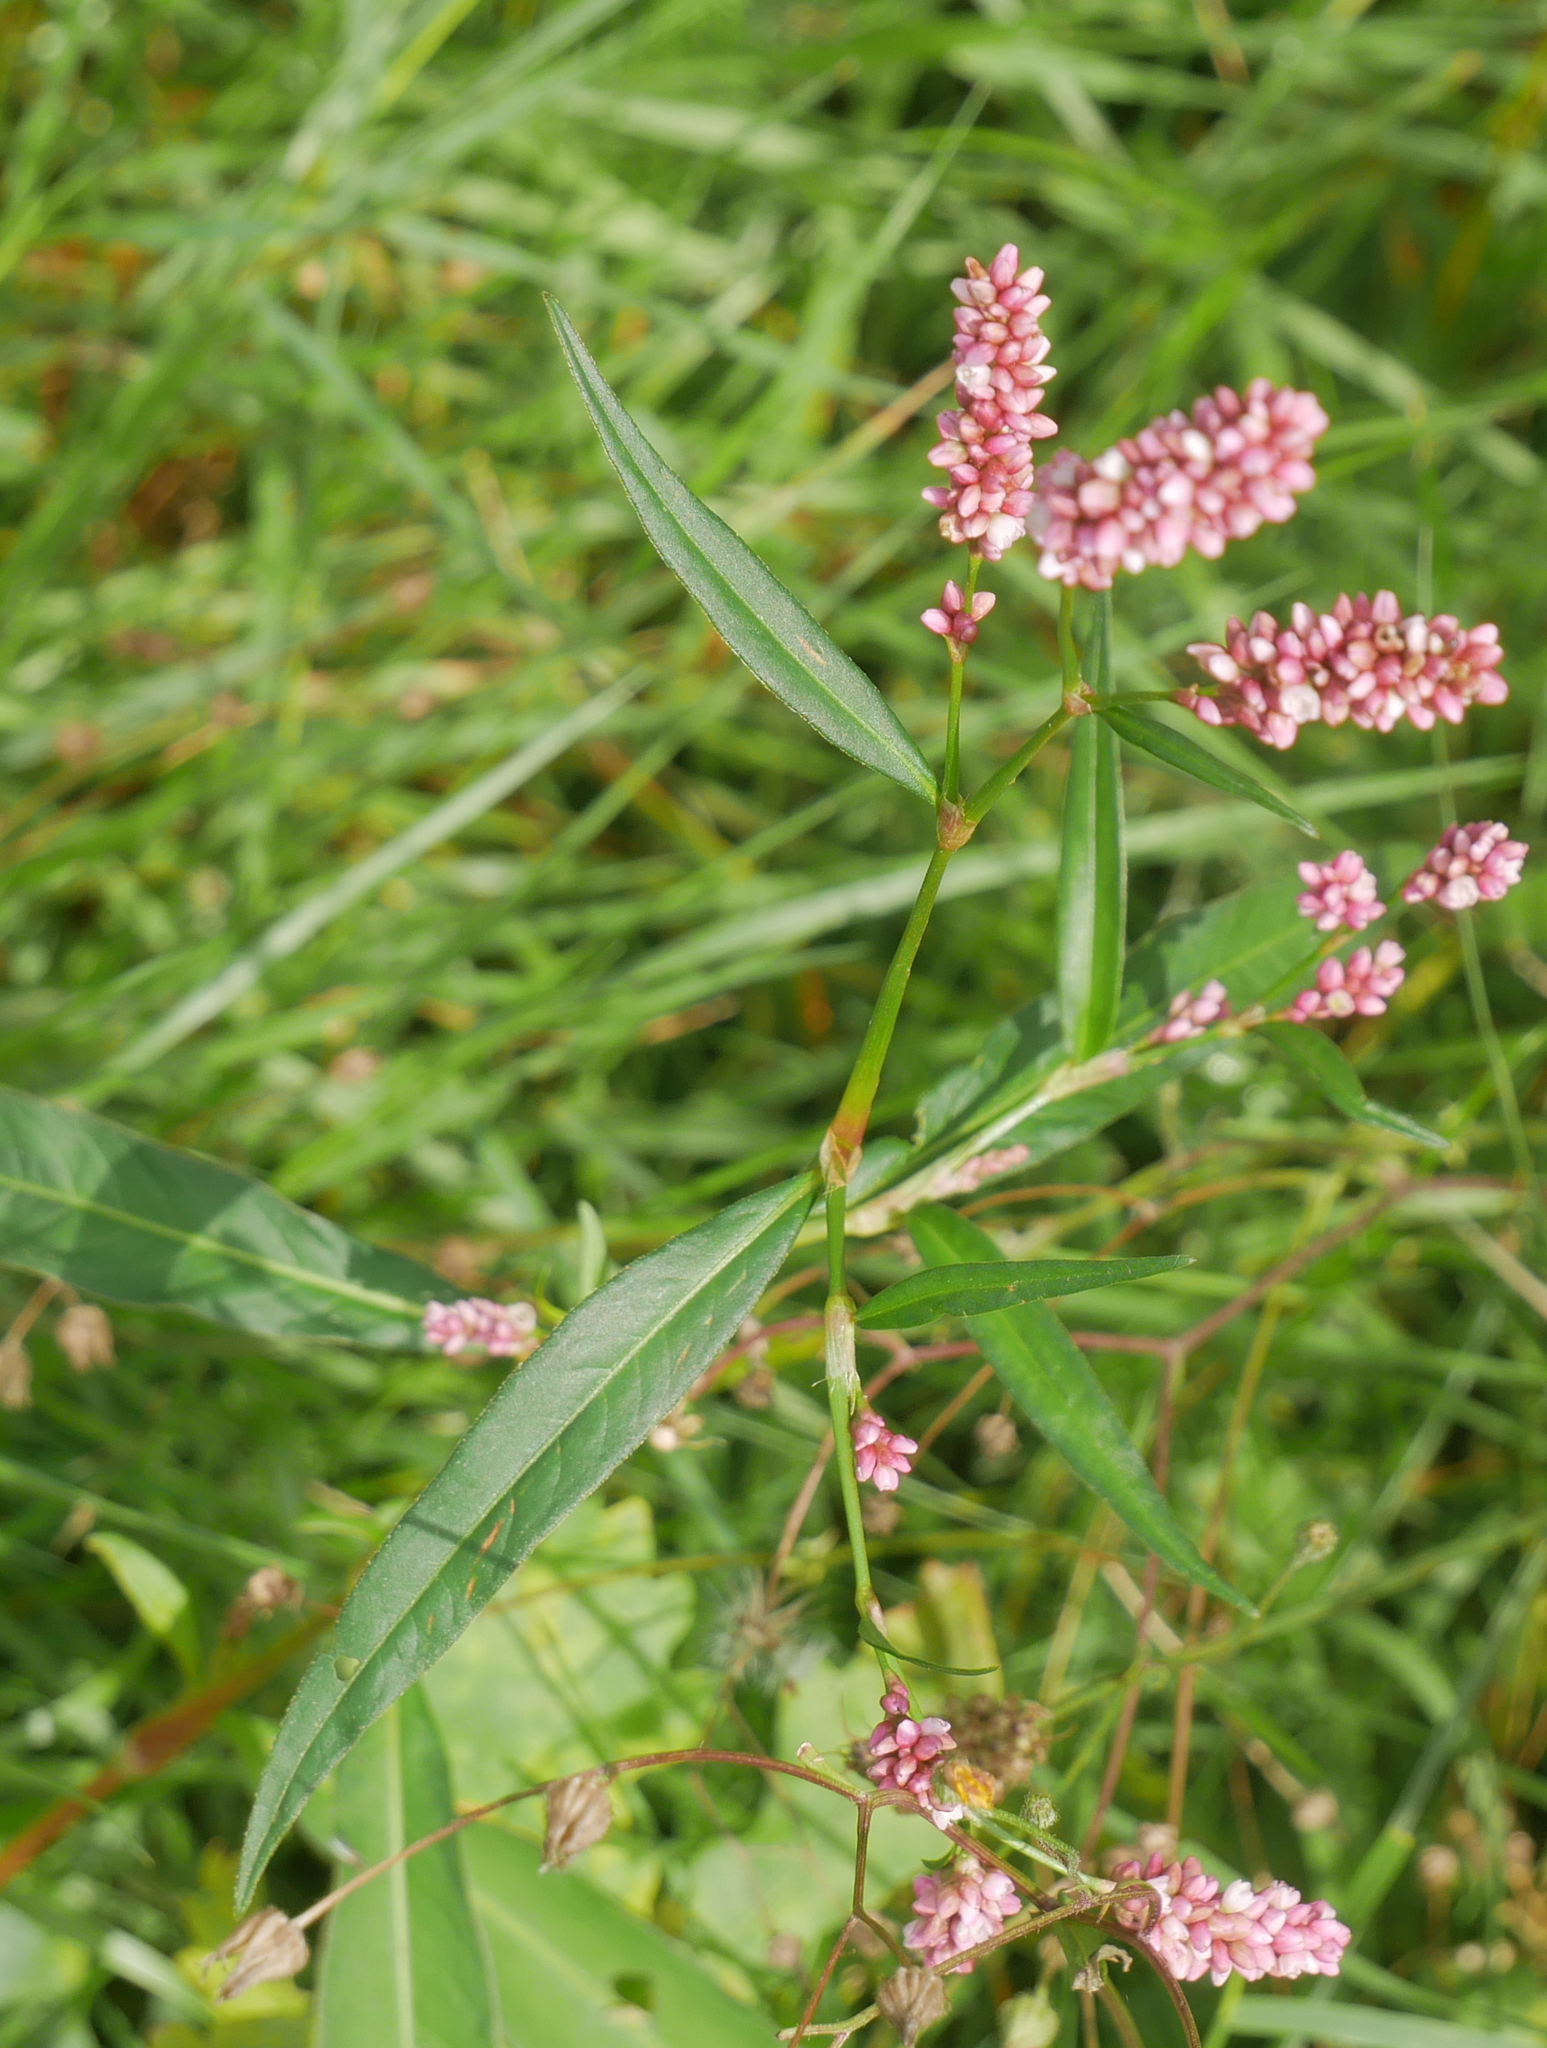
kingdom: Plantae
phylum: Tracheophyta
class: Magnoliopsida
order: Caryophyllales
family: Polygonaceae
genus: Persicaria
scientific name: Persicaria maculosa
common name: Redshank
